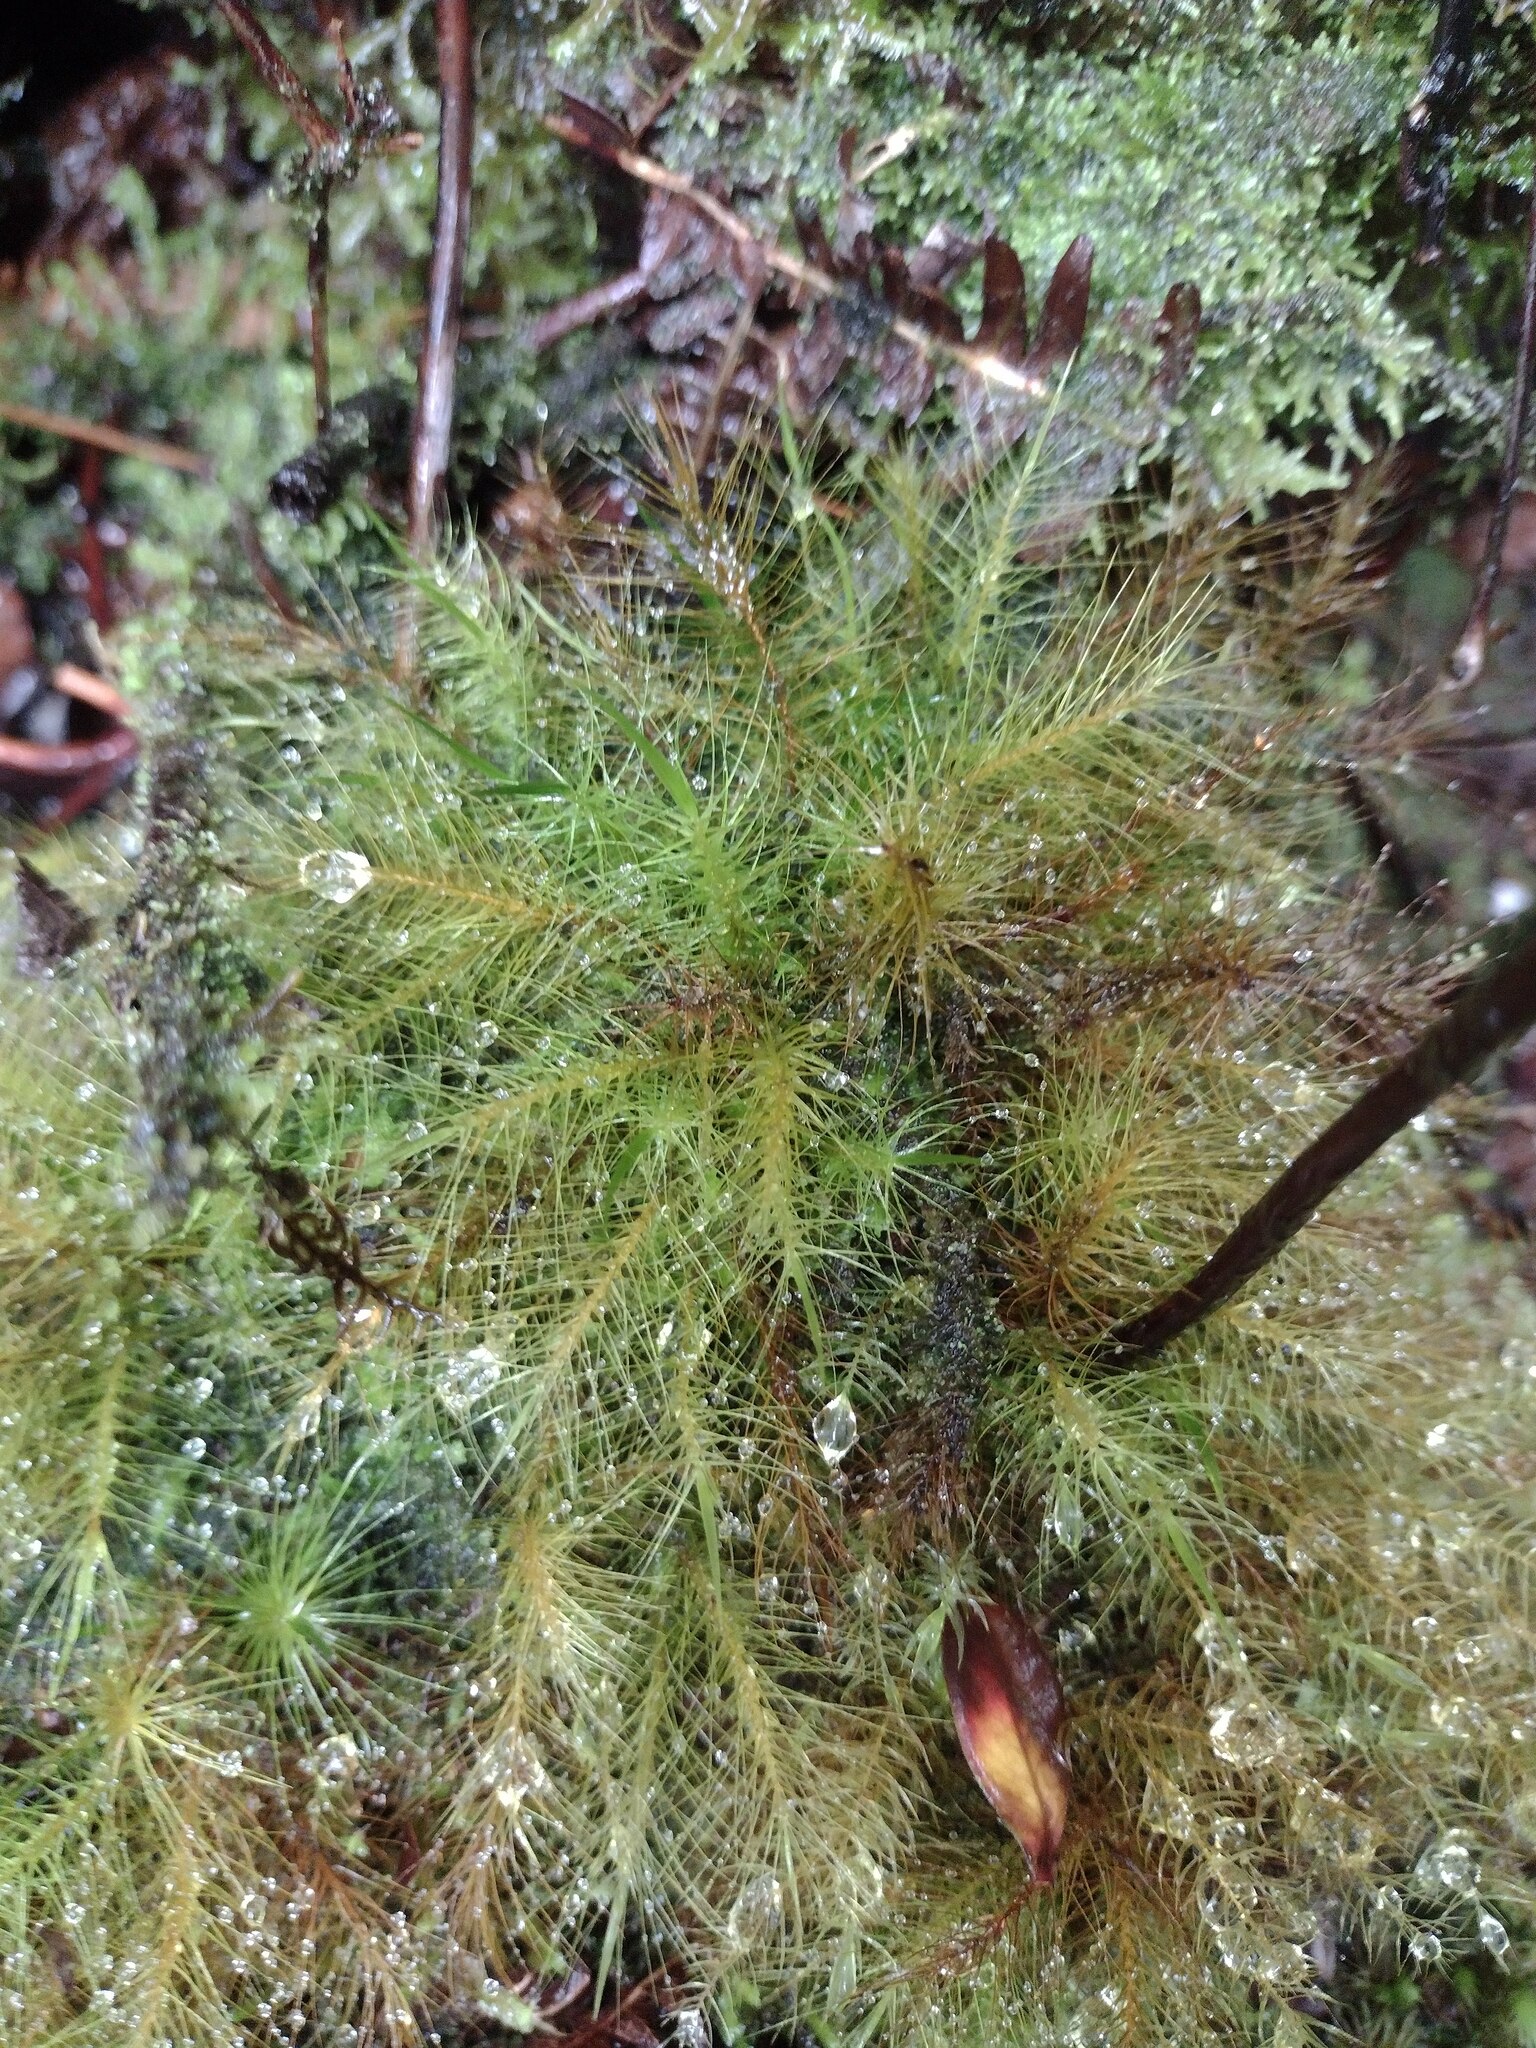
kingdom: Plantae
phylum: Bryophyta
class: Bryopsida
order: Rhizogoniales
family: Calomniaceae
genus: Pyrrhobryum
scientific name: Pyrrhobryum pungens
